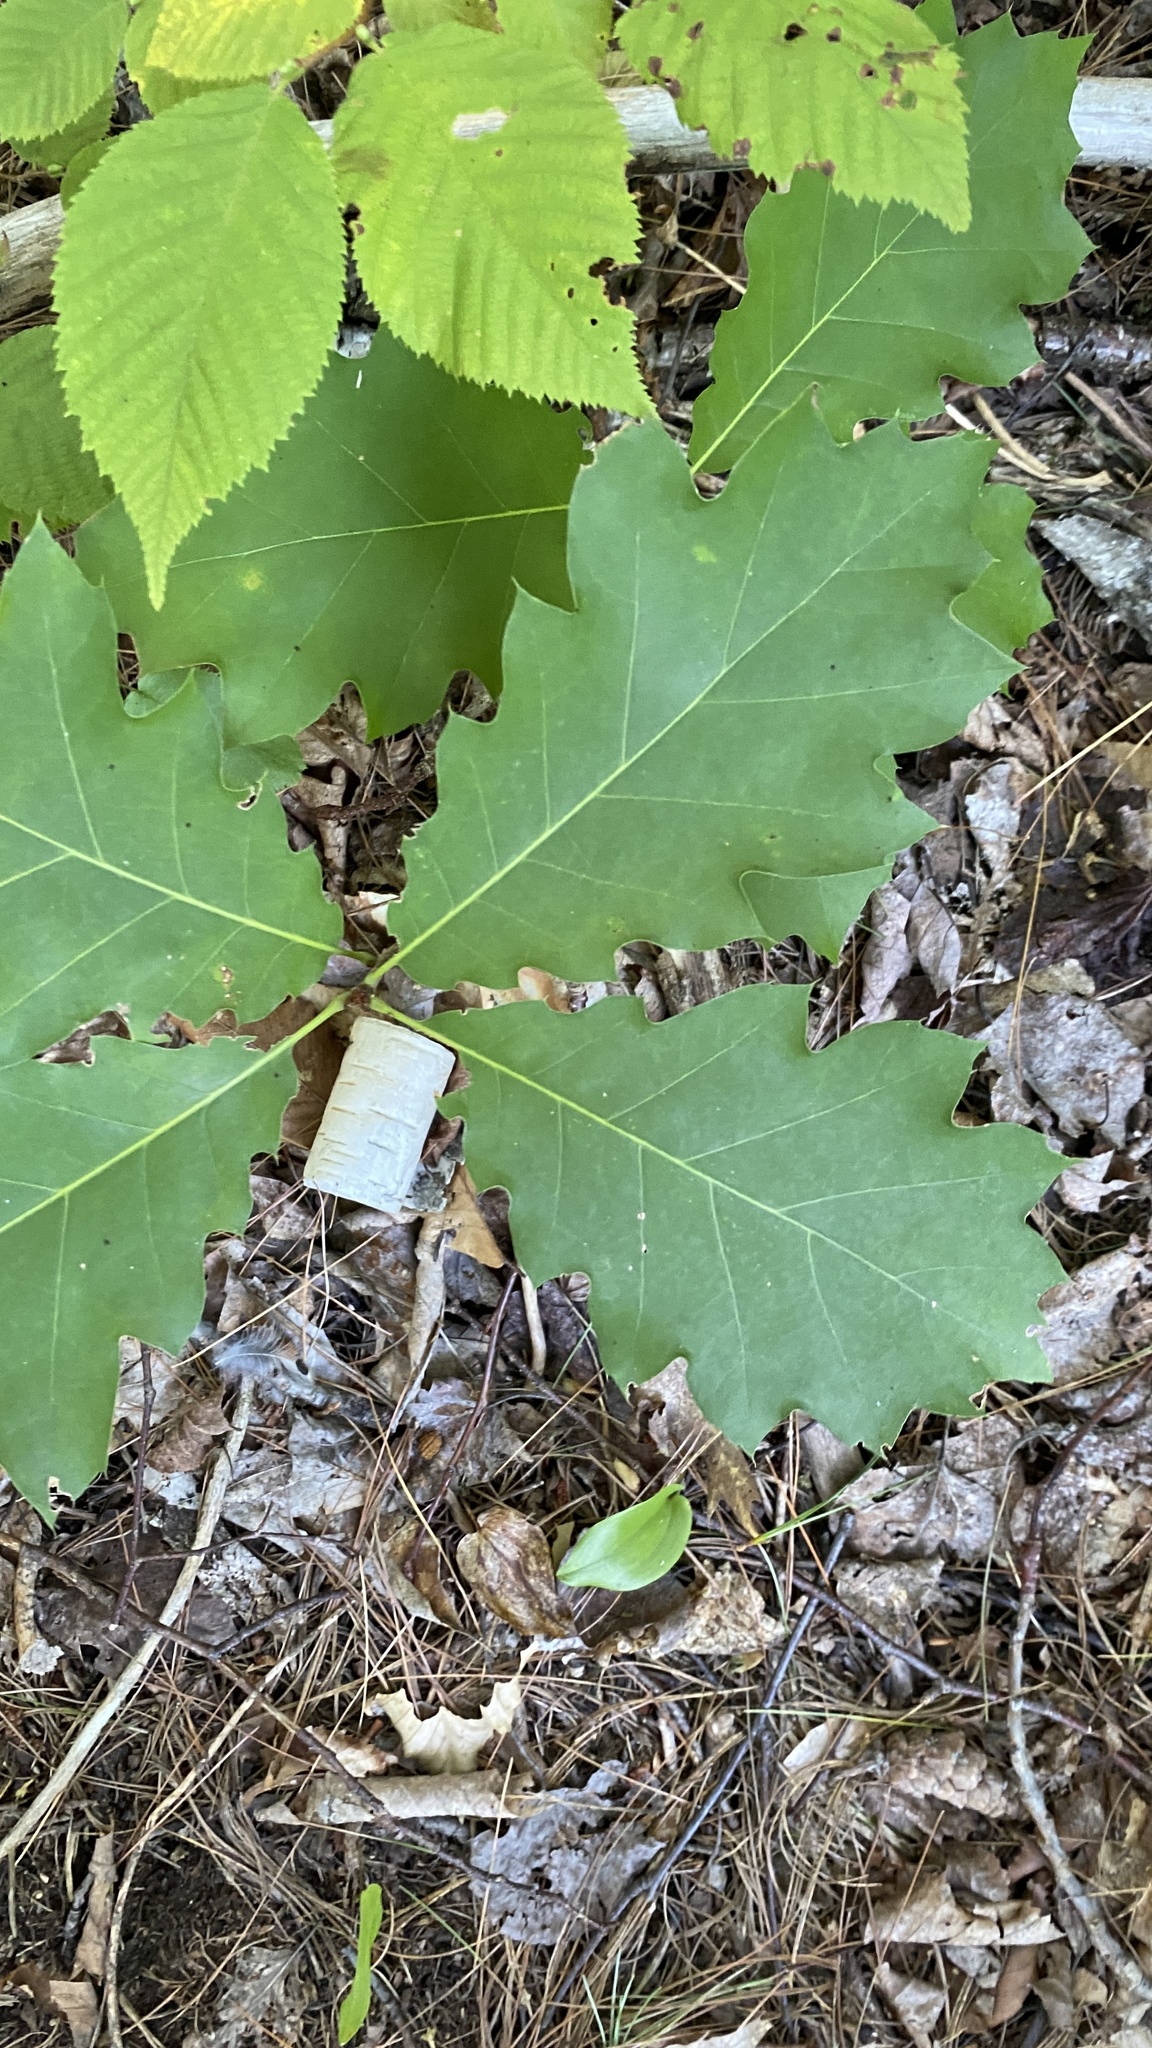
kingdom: Plantae
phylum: Tracheophyta
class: Magnoliopsida
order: Fagales
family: Fagaceae
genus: Quercus
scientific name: Quercus rubra
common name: Red oak
